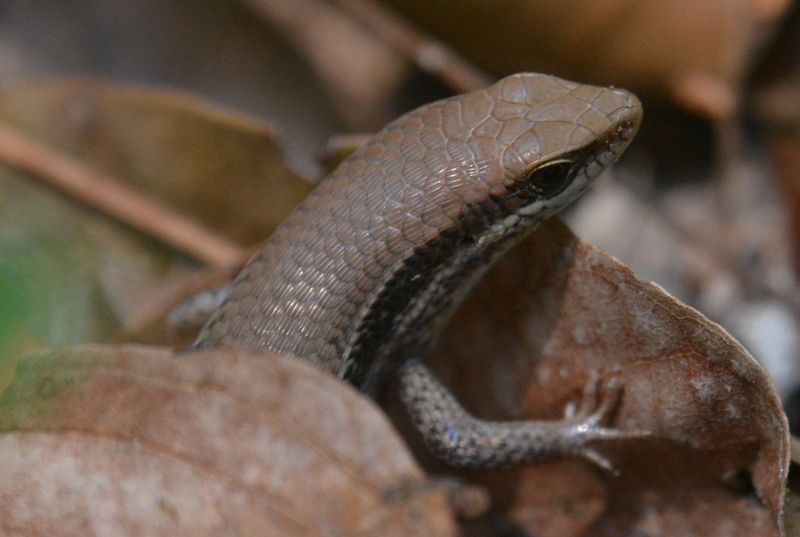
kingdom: Animalia
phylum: Chordata
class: Squamata
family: Scincidae
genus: Eutropis
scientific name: Eutropis macularia
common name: Bronze mabuya
